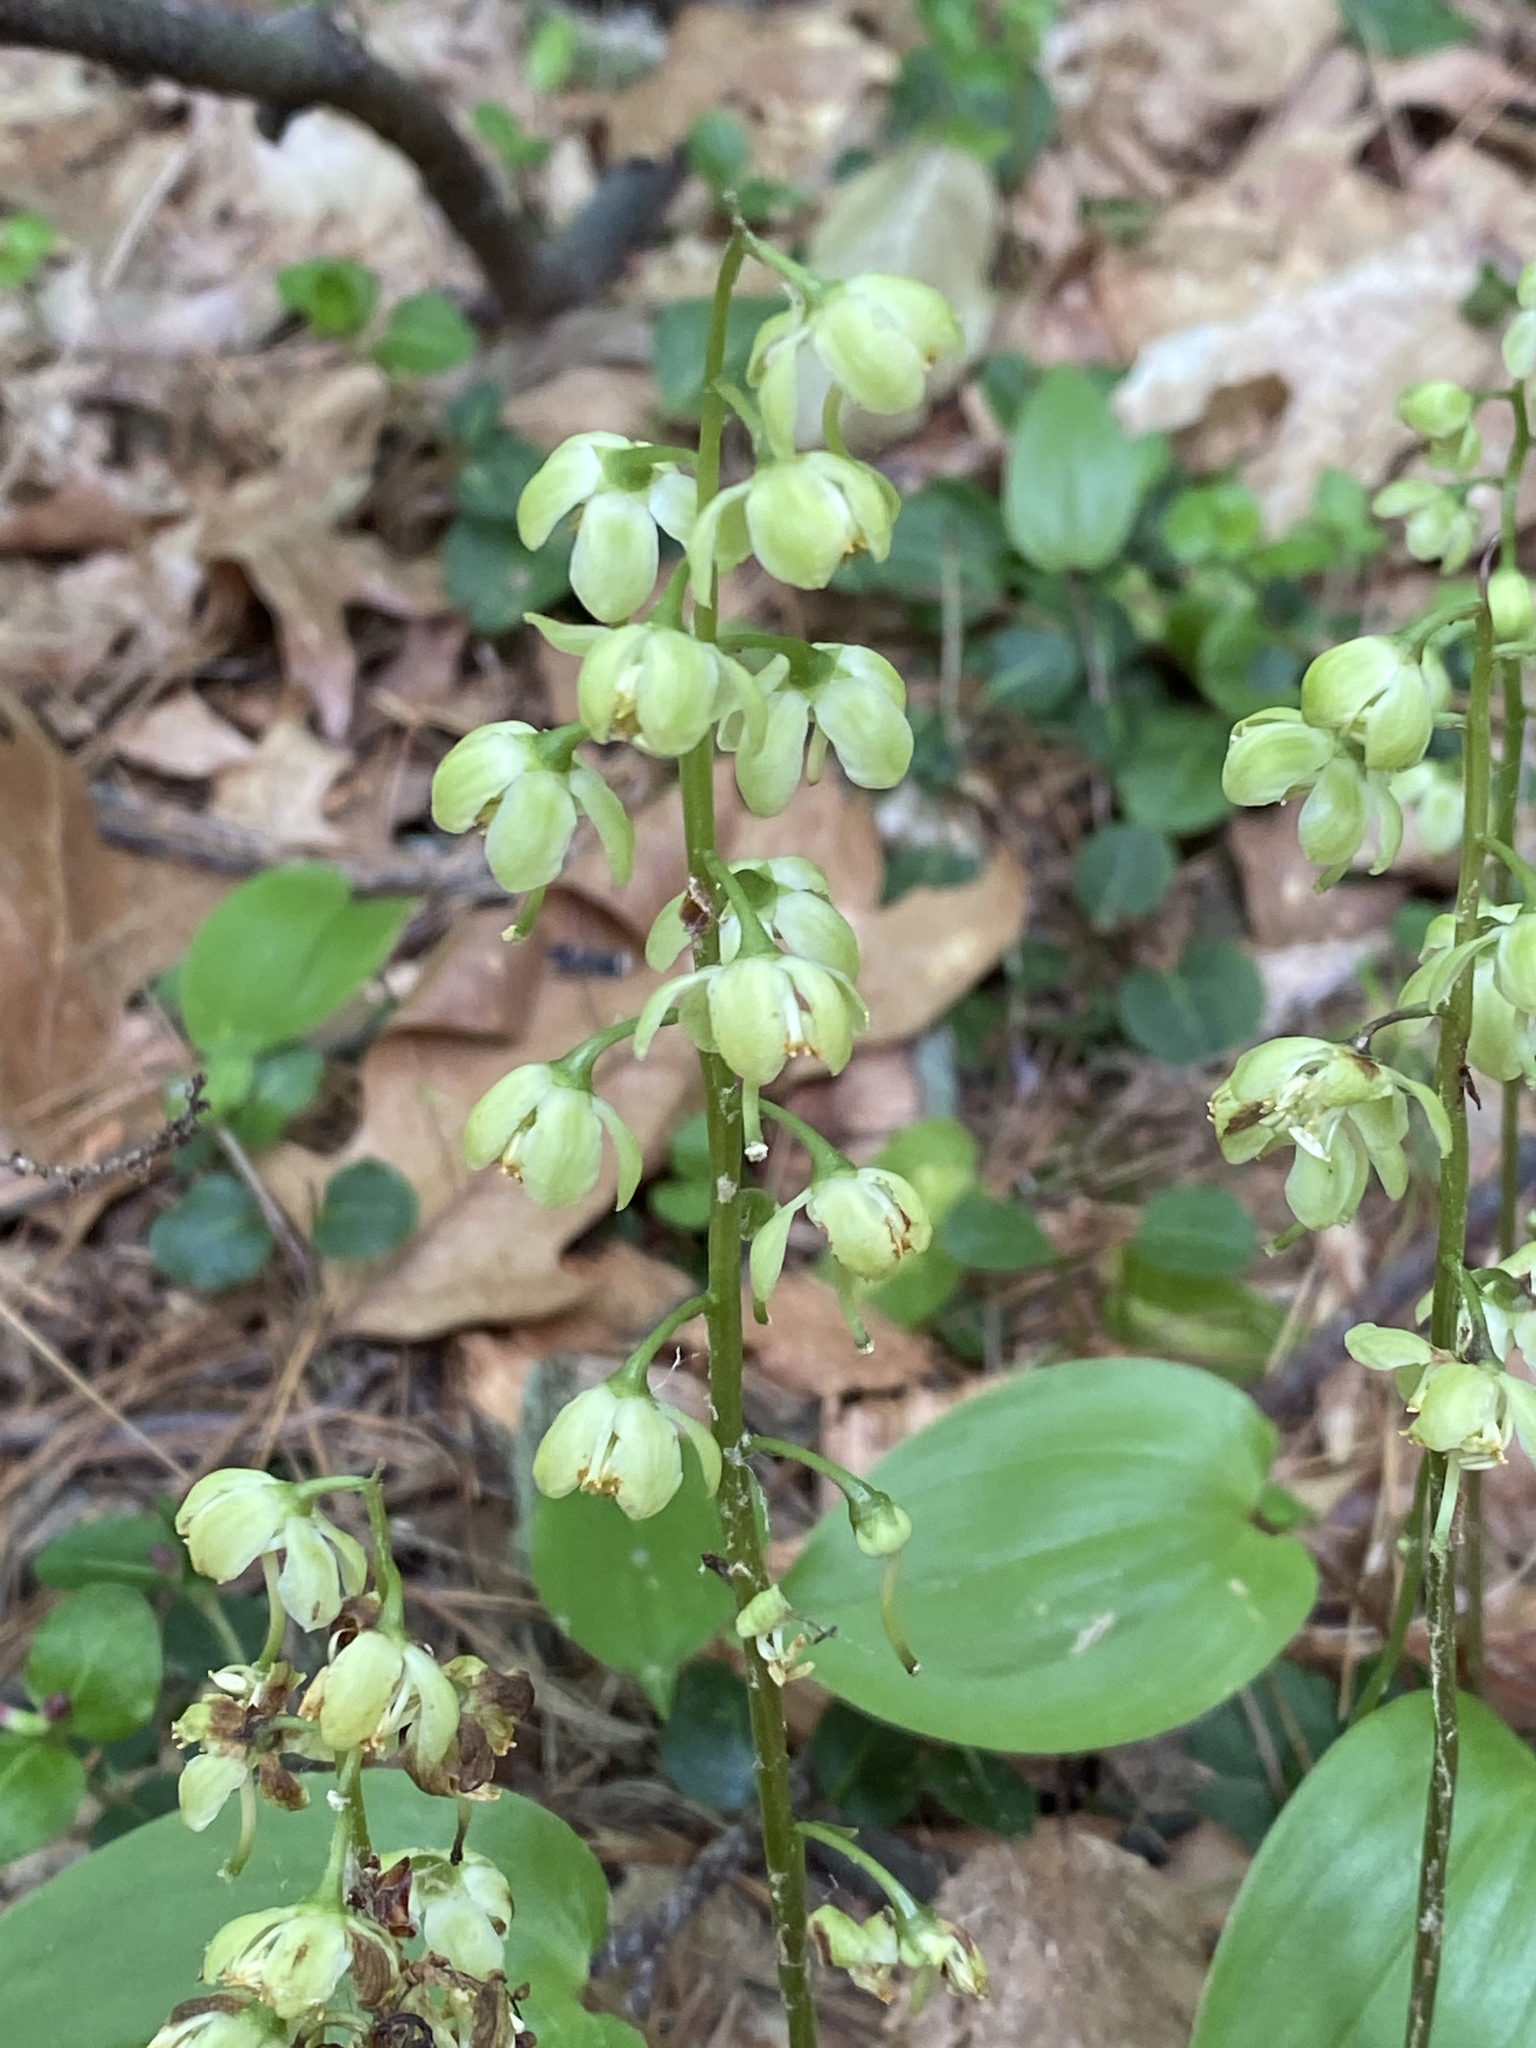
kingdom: Plantae
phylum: Tracheophyta
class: Magnoliopsida
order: Ericales
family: Ericaceae
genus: Pyrola
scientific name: Pyrola chlorantha
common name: Green wintergreen
